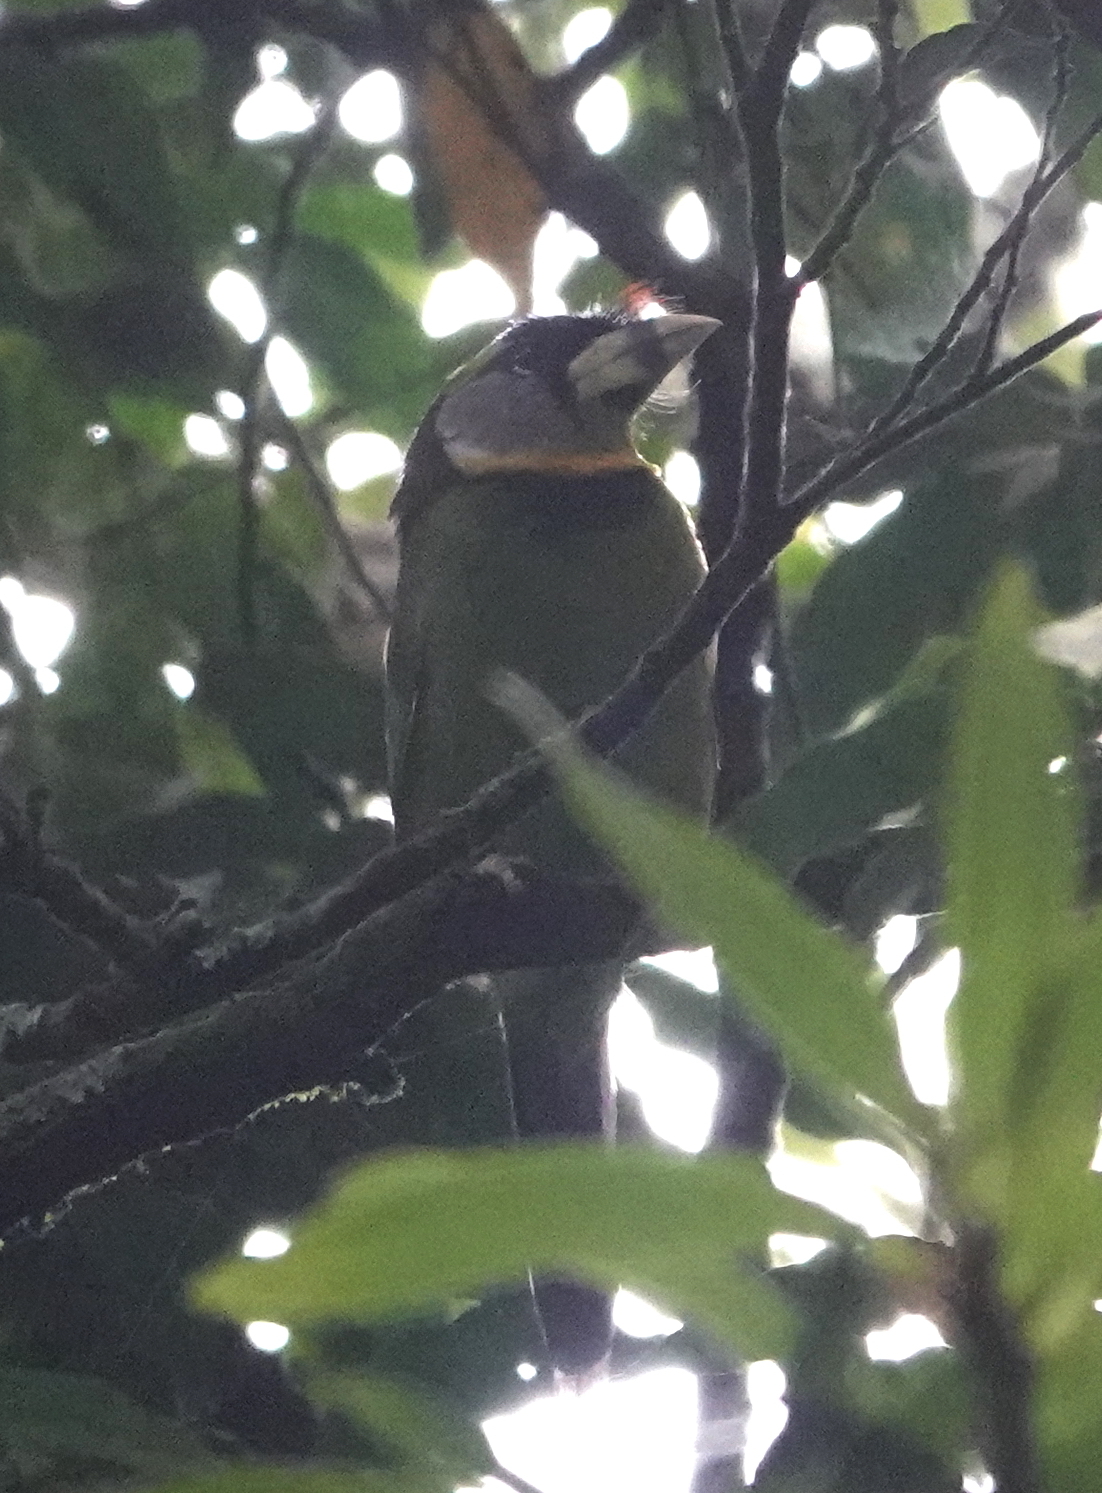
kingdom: Animalia
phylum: Chordata
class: Aves
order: Piciformes
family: Megalaimidae
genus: Psilopogon
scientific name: Psilopogon pyrolophus
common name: Fire-tufted barbet
